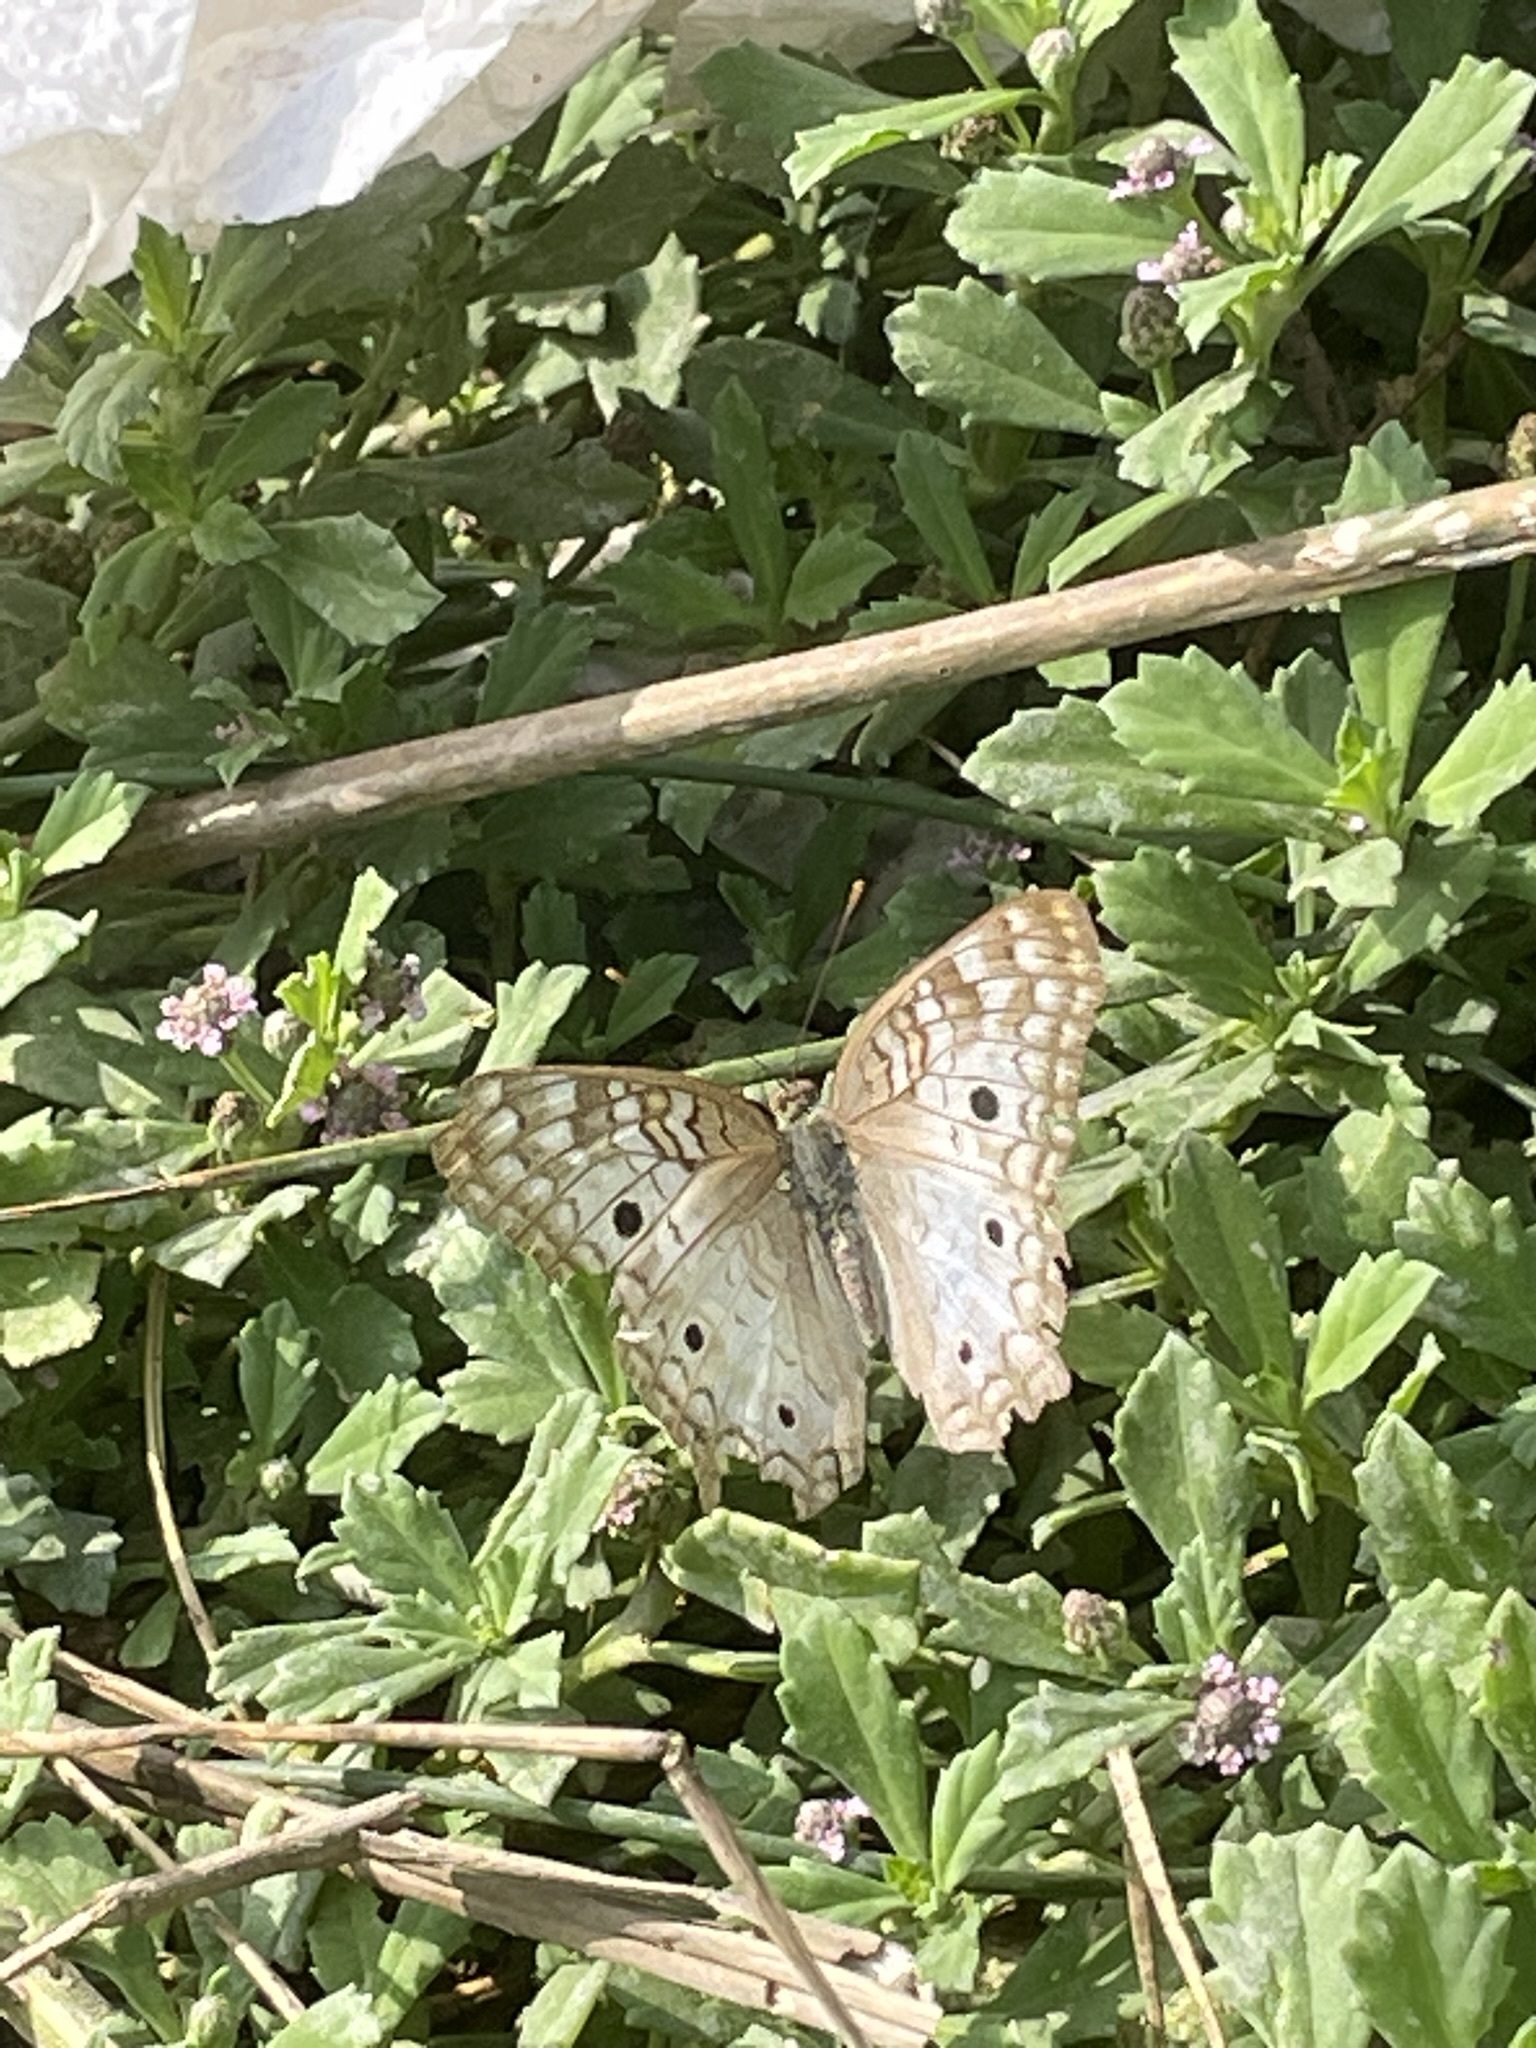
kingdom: Animalia
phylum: Arthropoda
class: Insecta
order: Lepidoptera
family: Nymphalidae
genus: Anartia
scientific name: Anartia jatrophae
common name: White peacock
